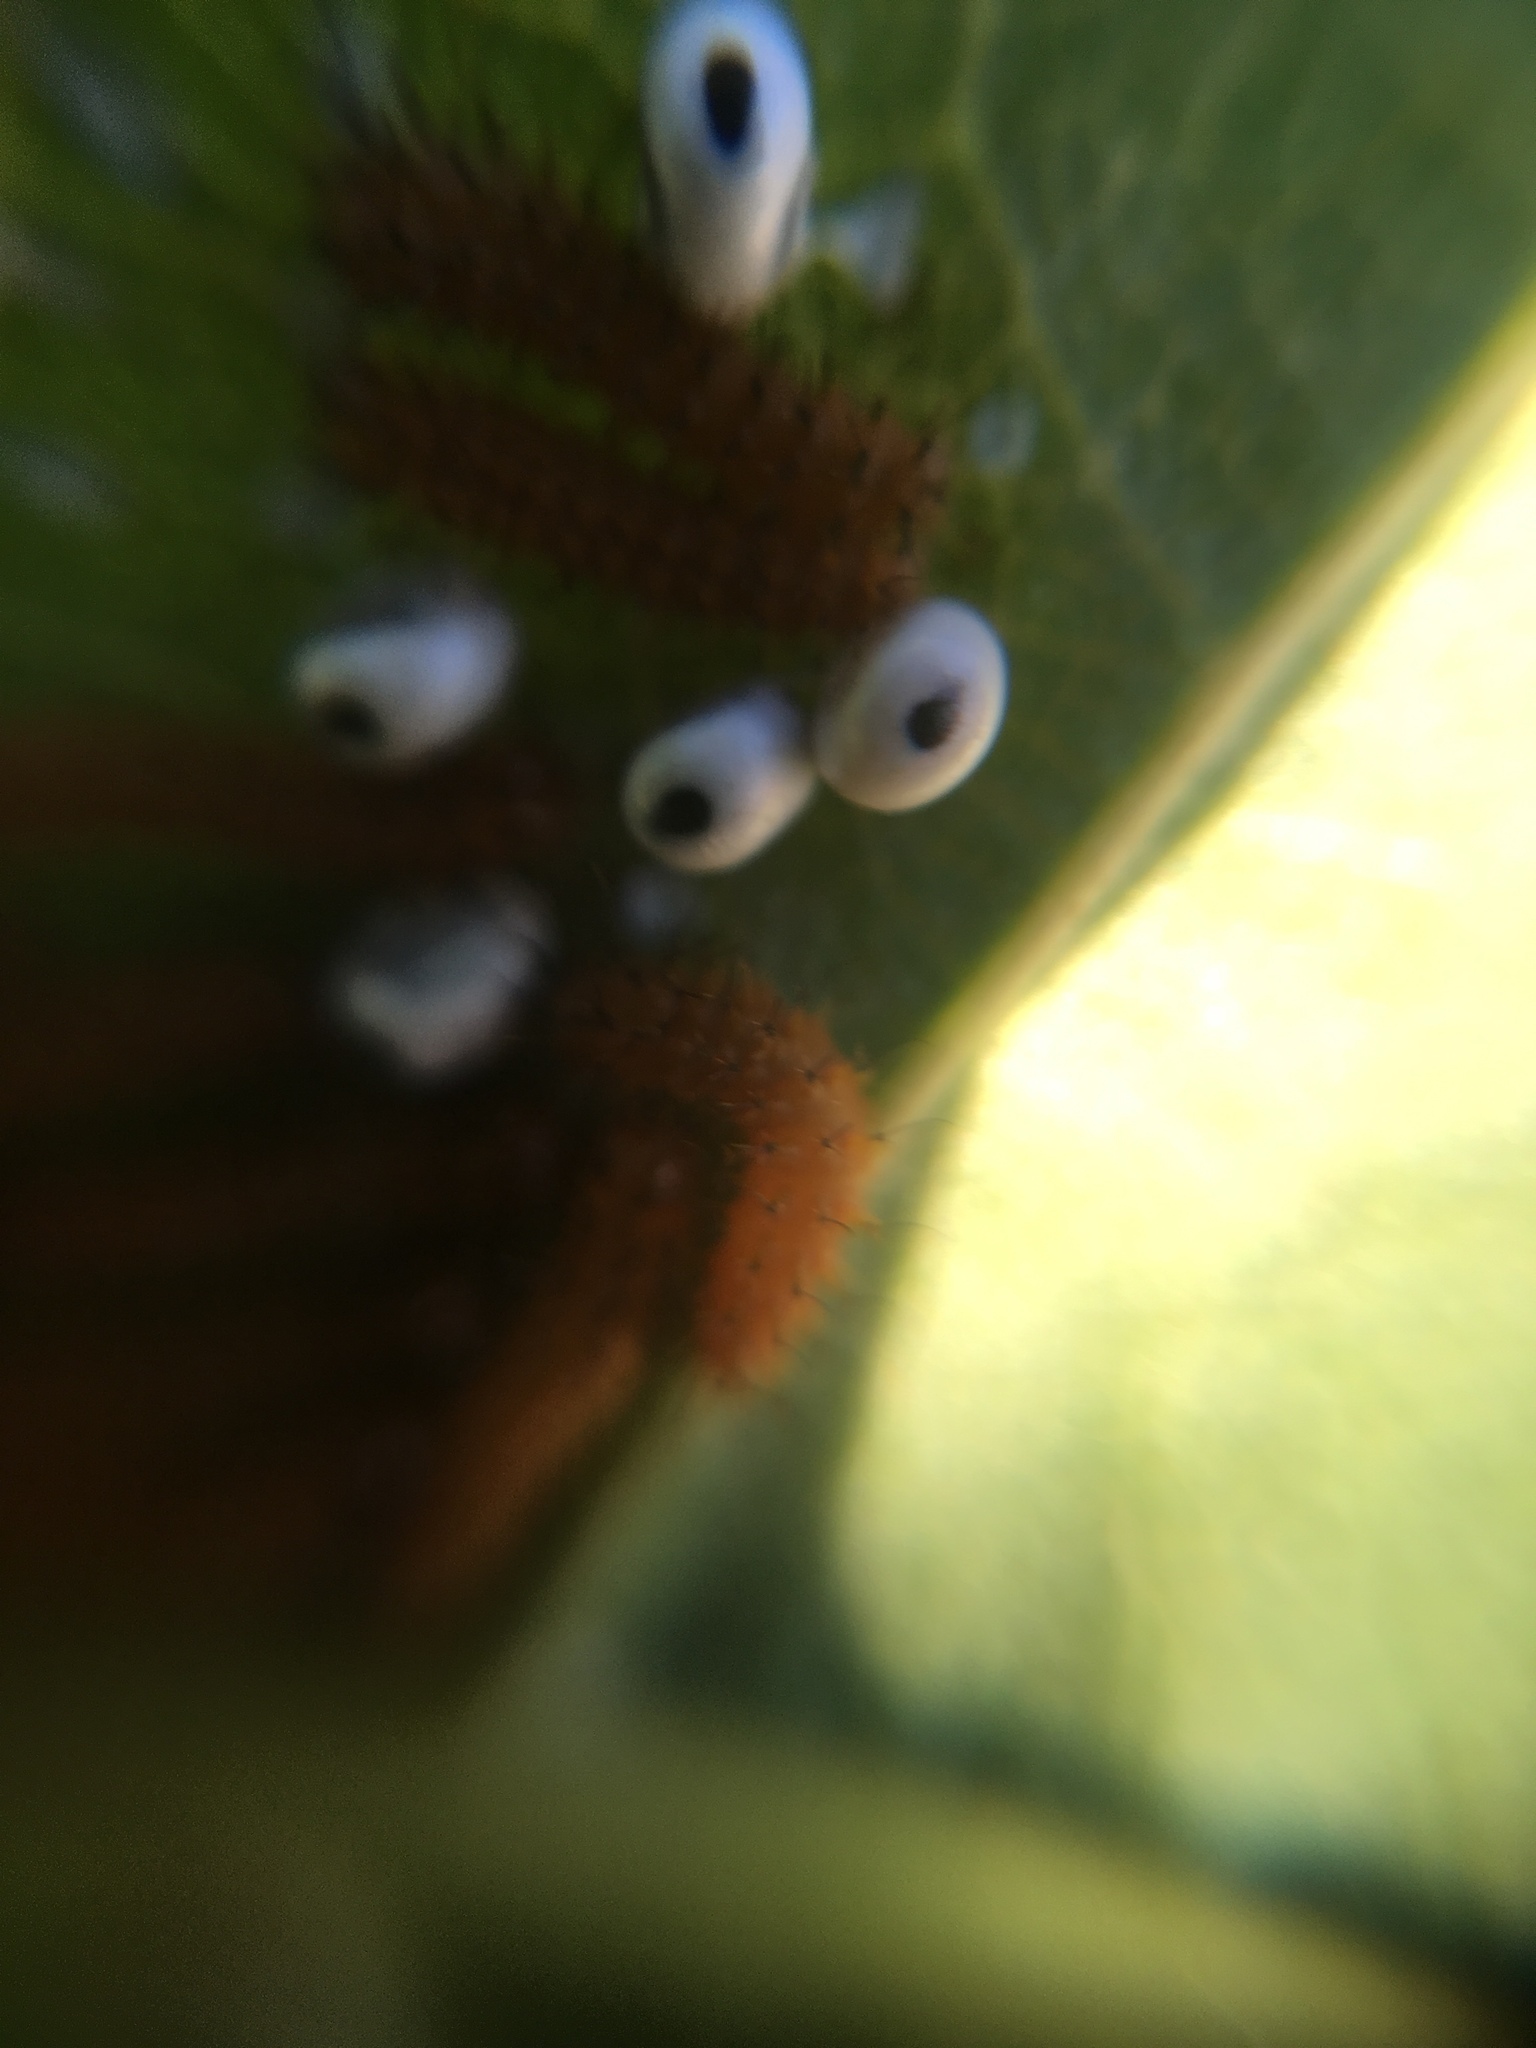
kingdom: Animalia
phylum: Arthropoda
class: Insecta
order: Lepidoptera
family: Saturniidae
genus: Automeris
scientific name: Automeris io
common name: Io moth
